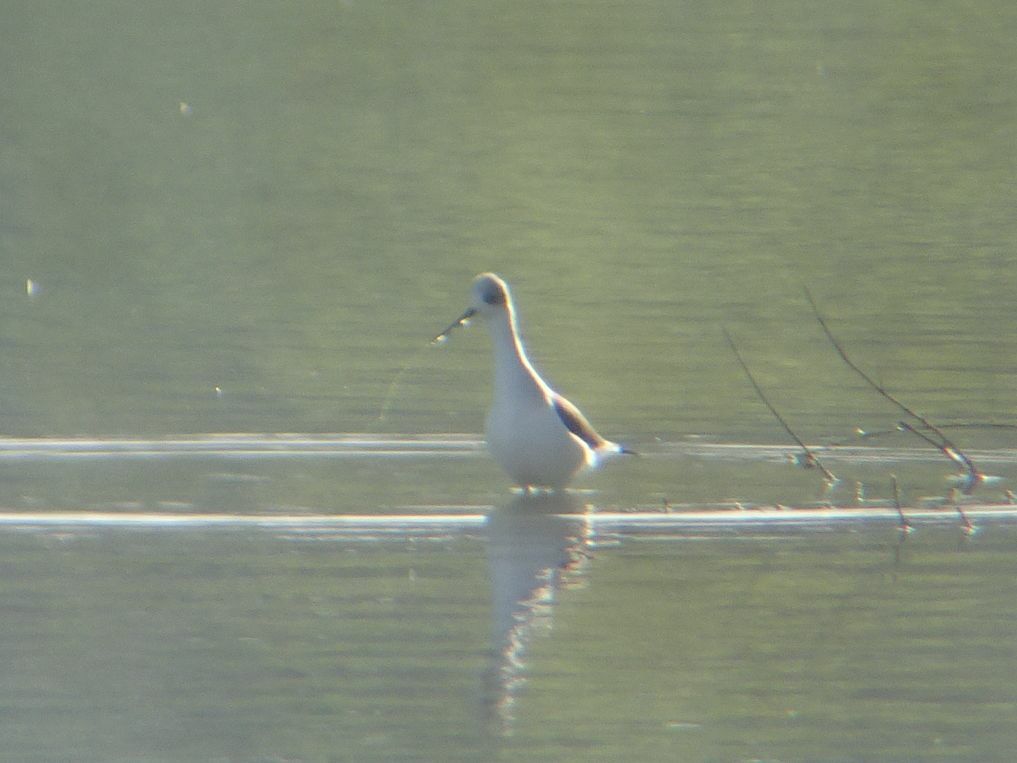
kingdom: Animalia
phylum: Chordata
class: Aves
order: Charadriiformes
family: Recurvirostridae
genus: Himantopus
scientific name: Himantopus himantopus
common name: Black-winged stilt
